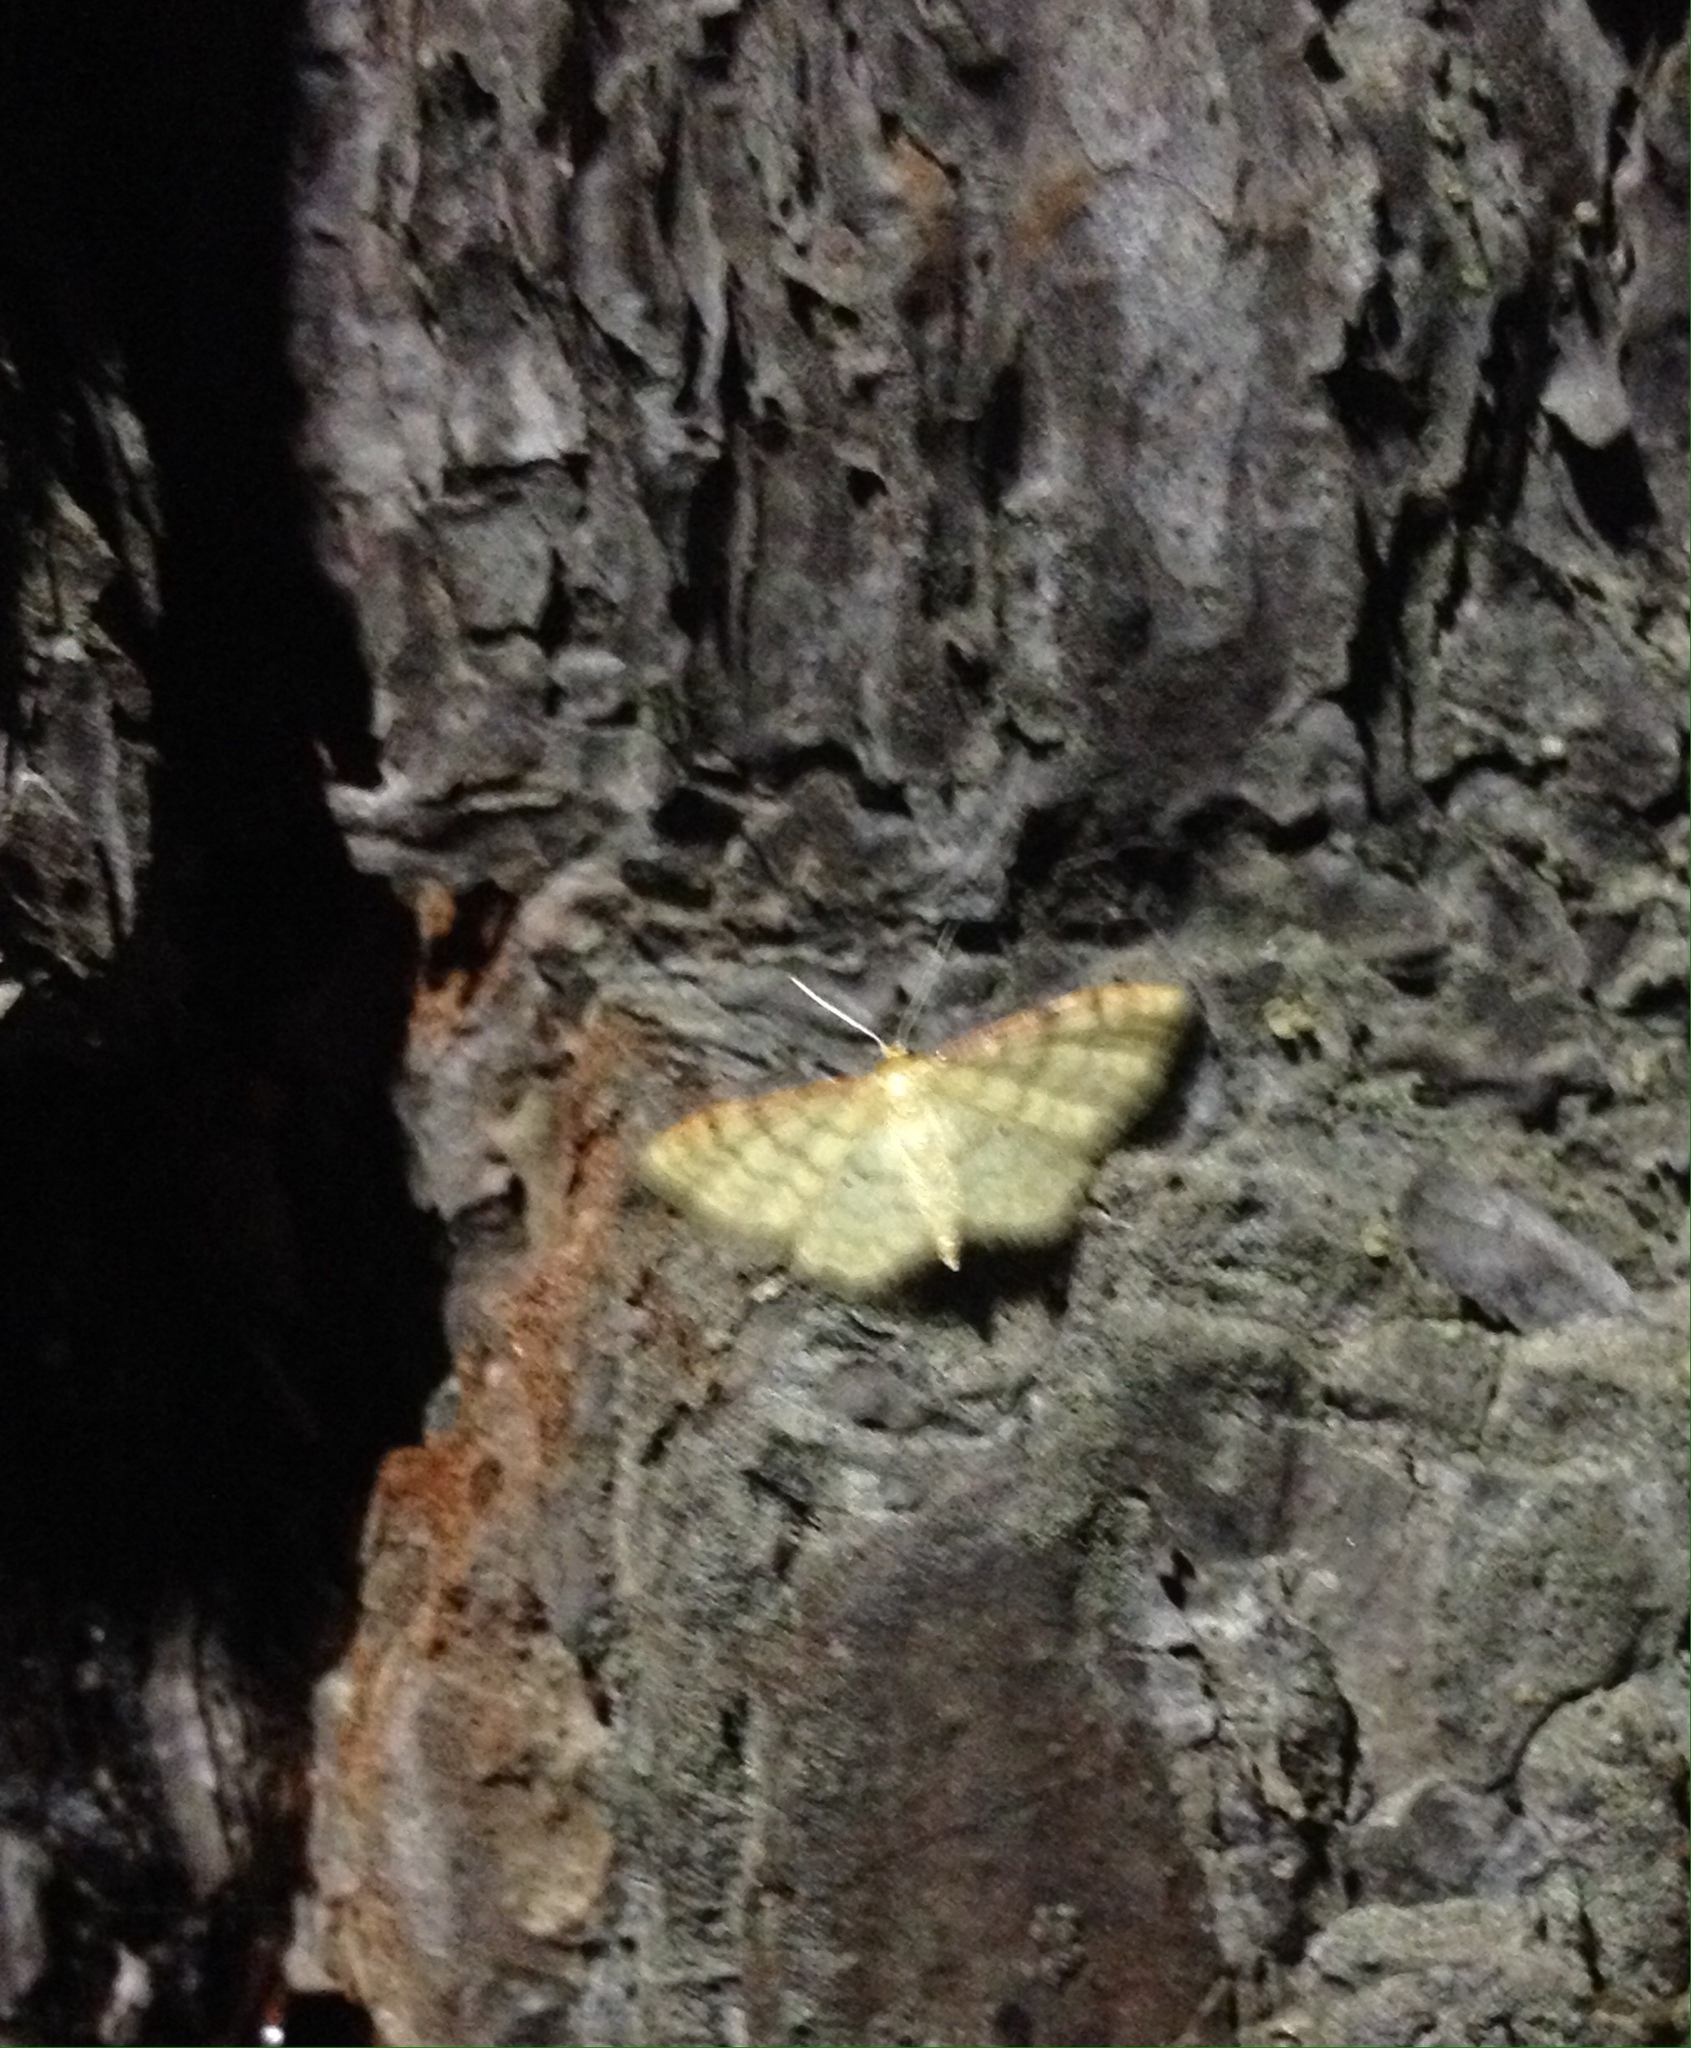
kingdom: Animalia
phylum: Arthropoda
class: Insecta
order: Lepidoptera
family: Geometridae
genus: Idaea
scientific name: Idaea humiliata
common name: Isle of wight wave
